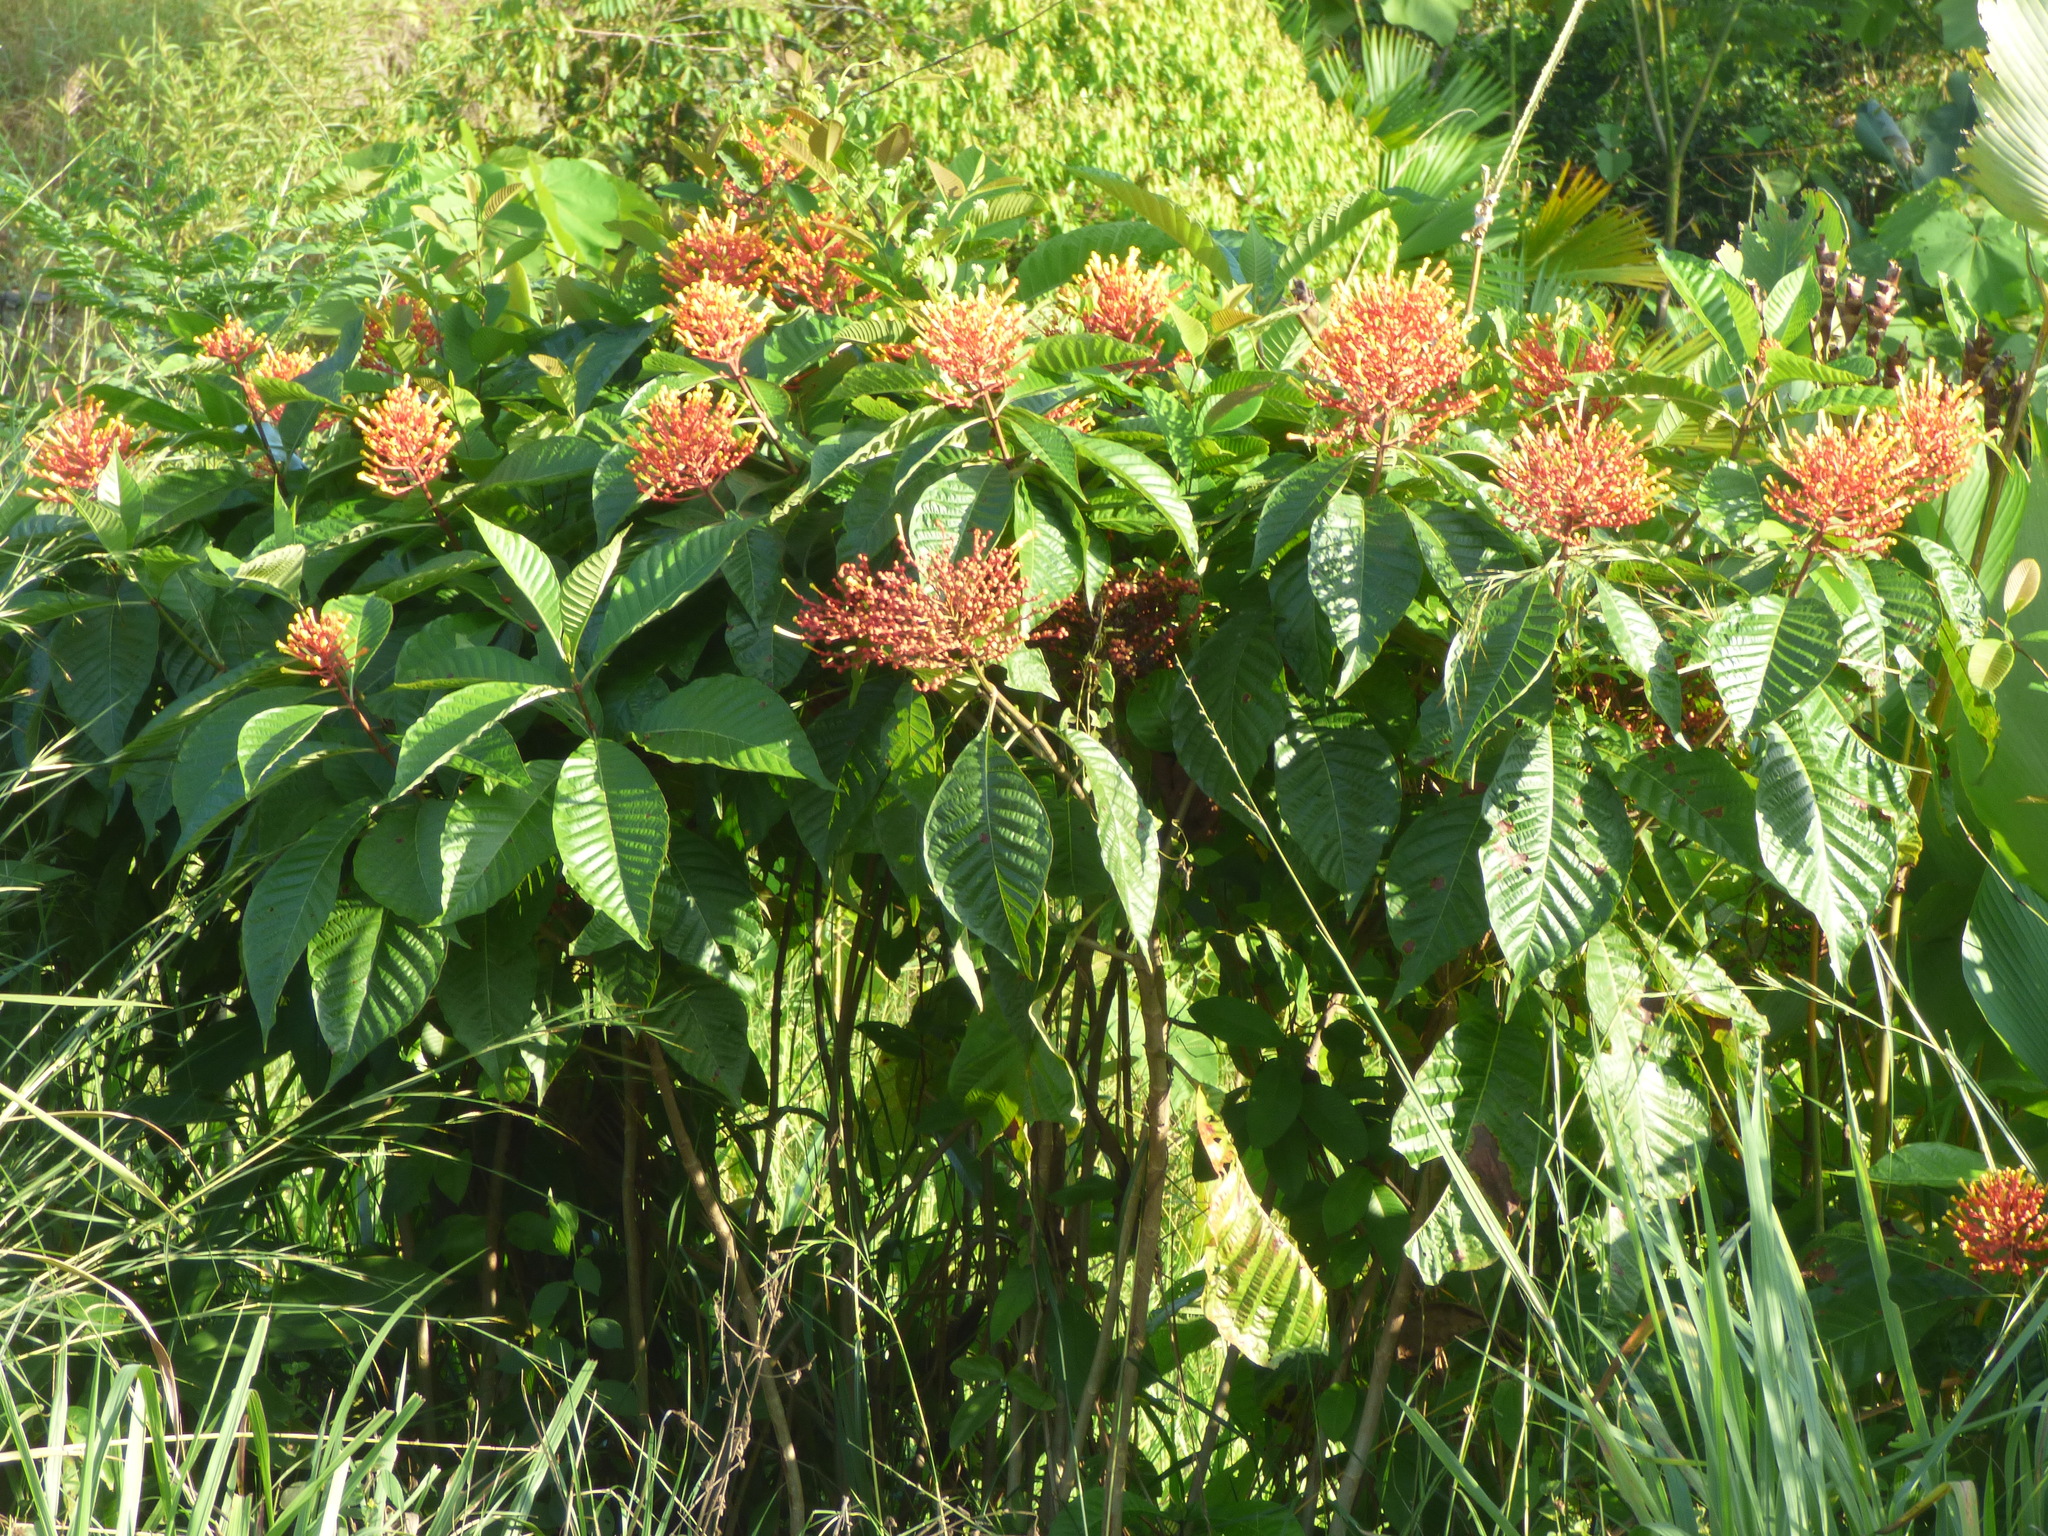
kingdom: Plantae
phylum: Tracheophyta
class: Magnoliopsida
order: Gentianales
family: Rubiaceae
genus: Isertia
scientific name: Isertia haenkeana
